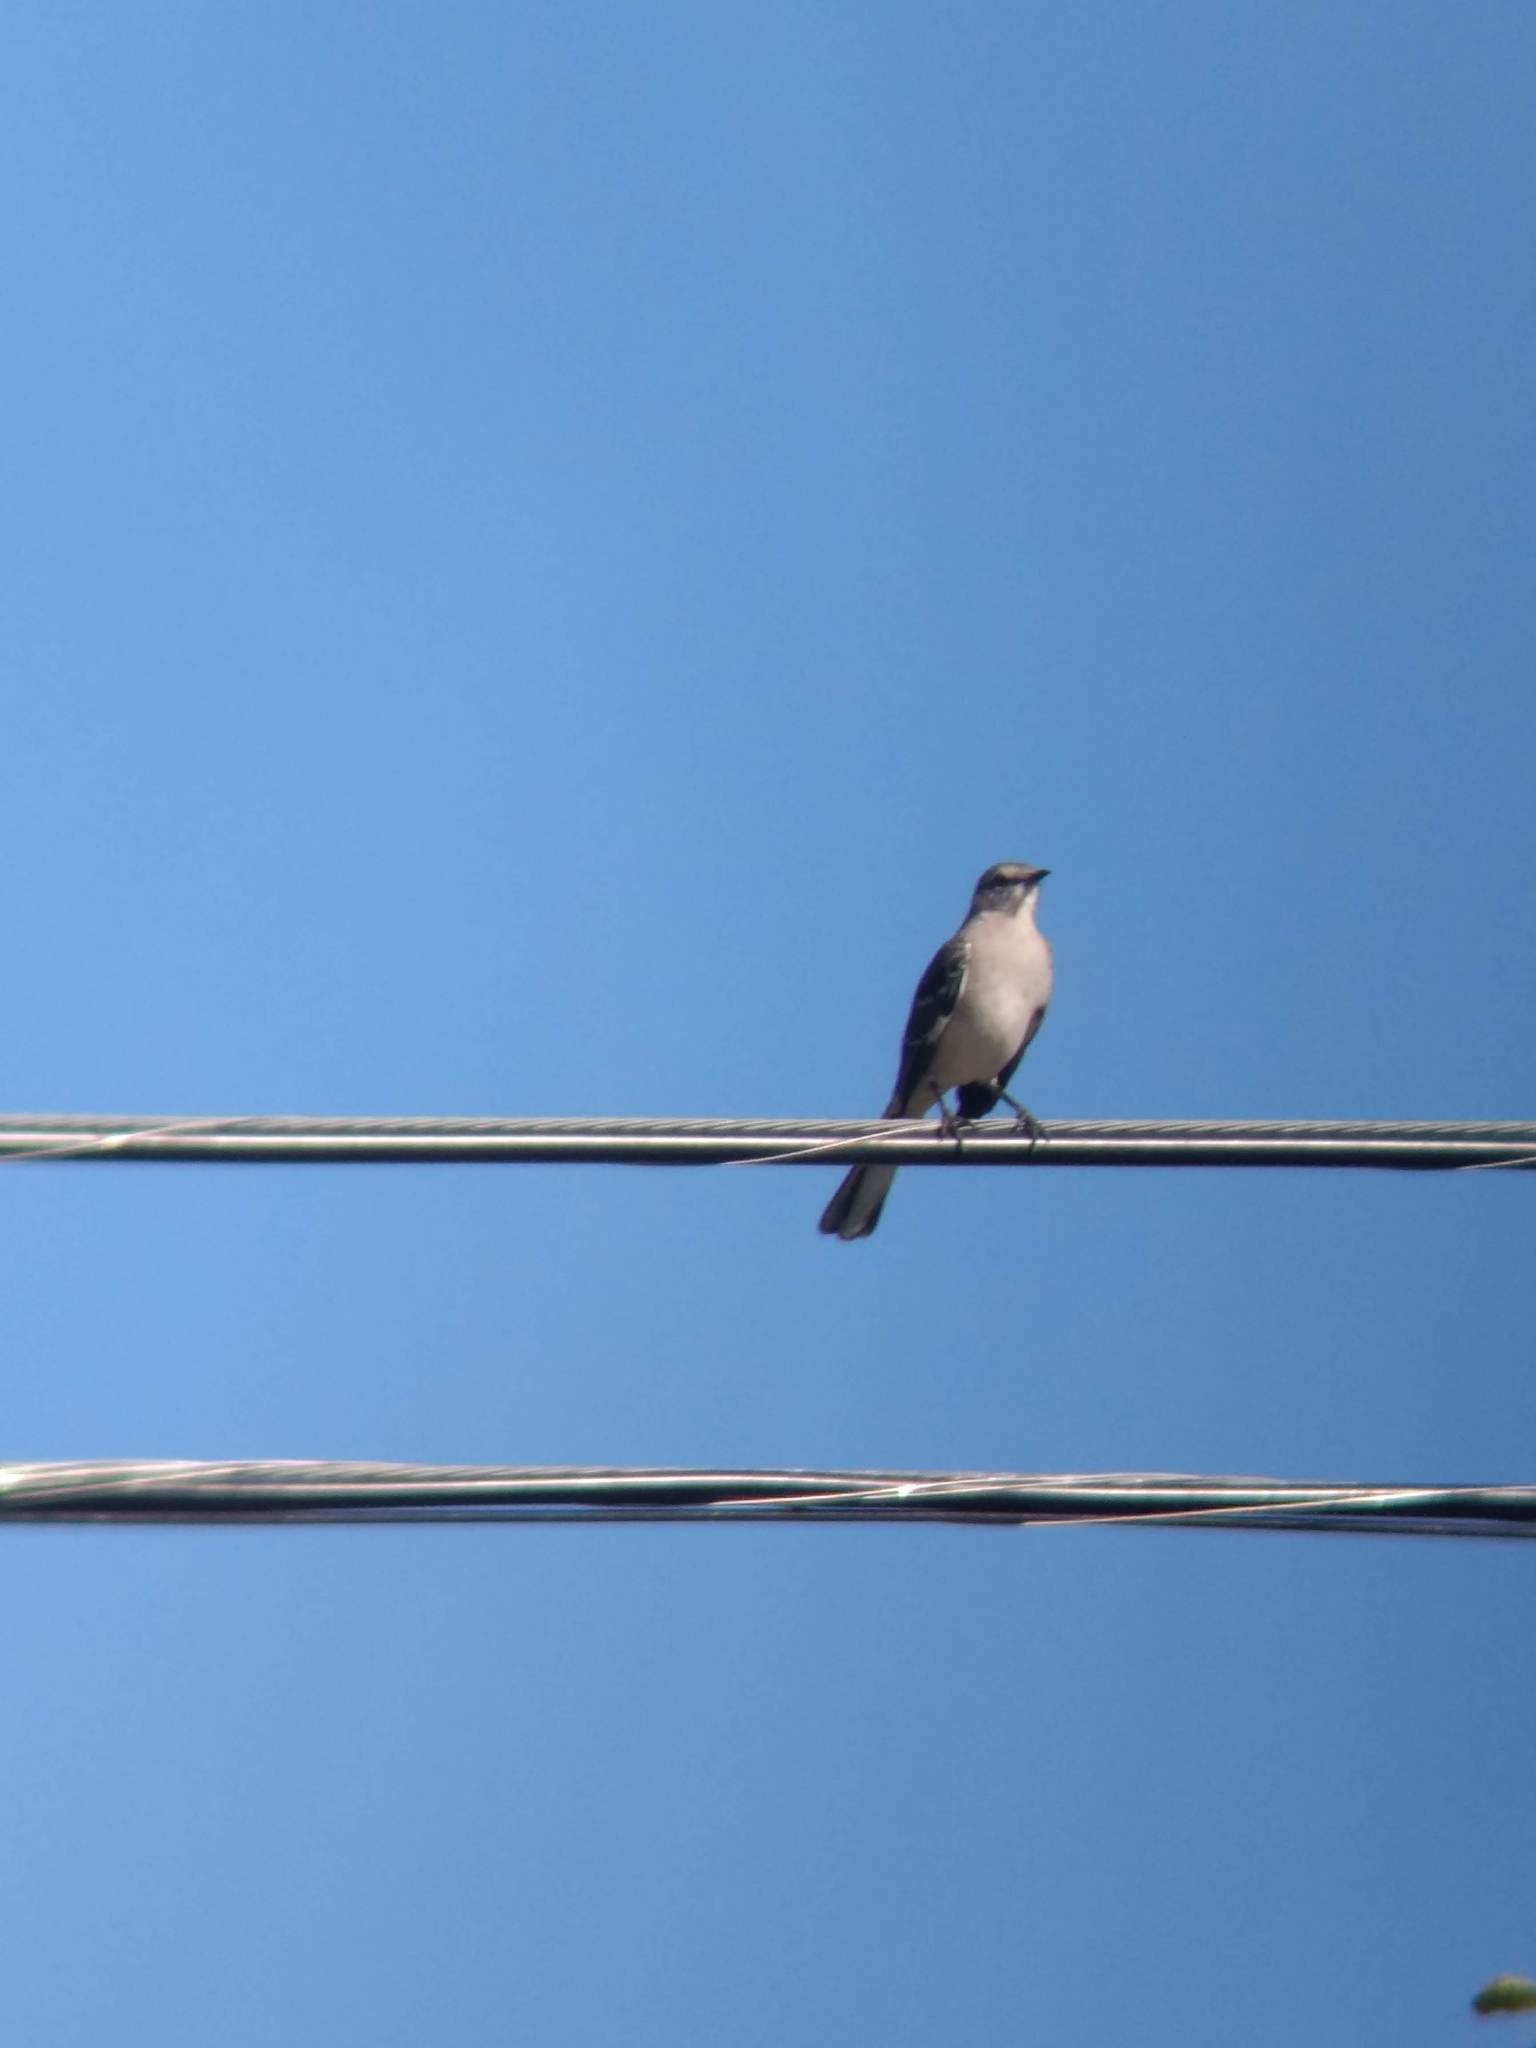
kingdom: Animalia
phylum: Chordata
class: Aves
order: Passeriformes
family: Mimidae
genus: Mimus
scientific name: Mimus polyglottos
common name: Northern mockingbird
